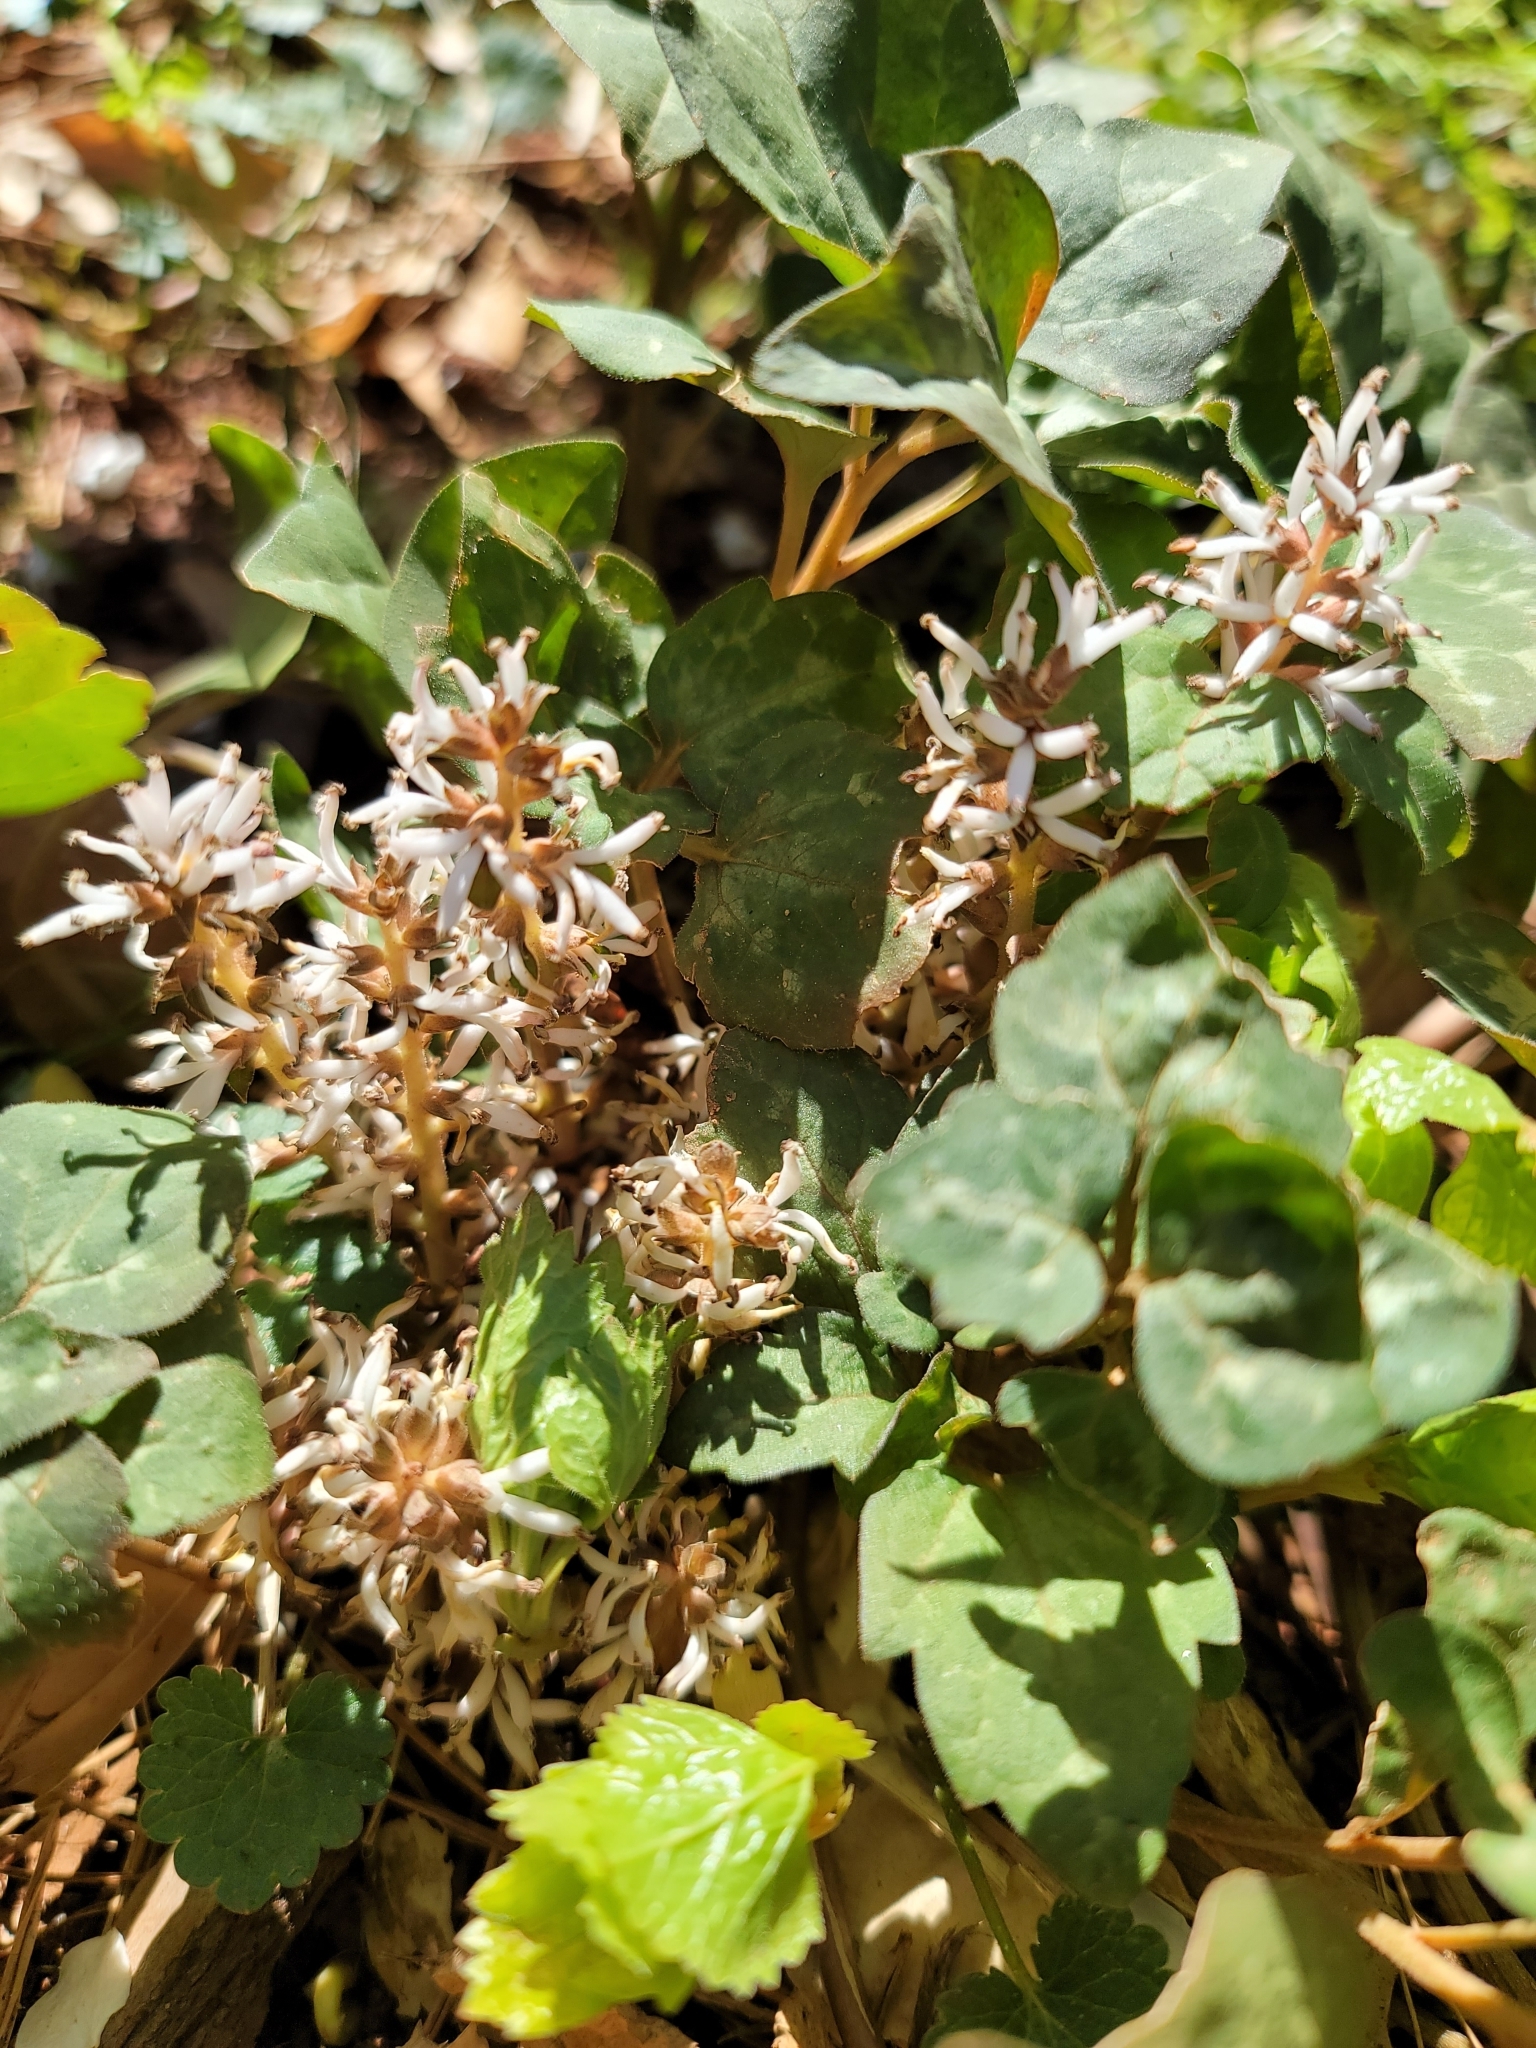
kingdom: Plantae
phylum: Tracheophyta
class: Magnoliopsida
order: Buxales
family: Buxaceae
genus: Pachysandra
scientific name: Pachysandra procumbens
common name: Mountain-spurge
